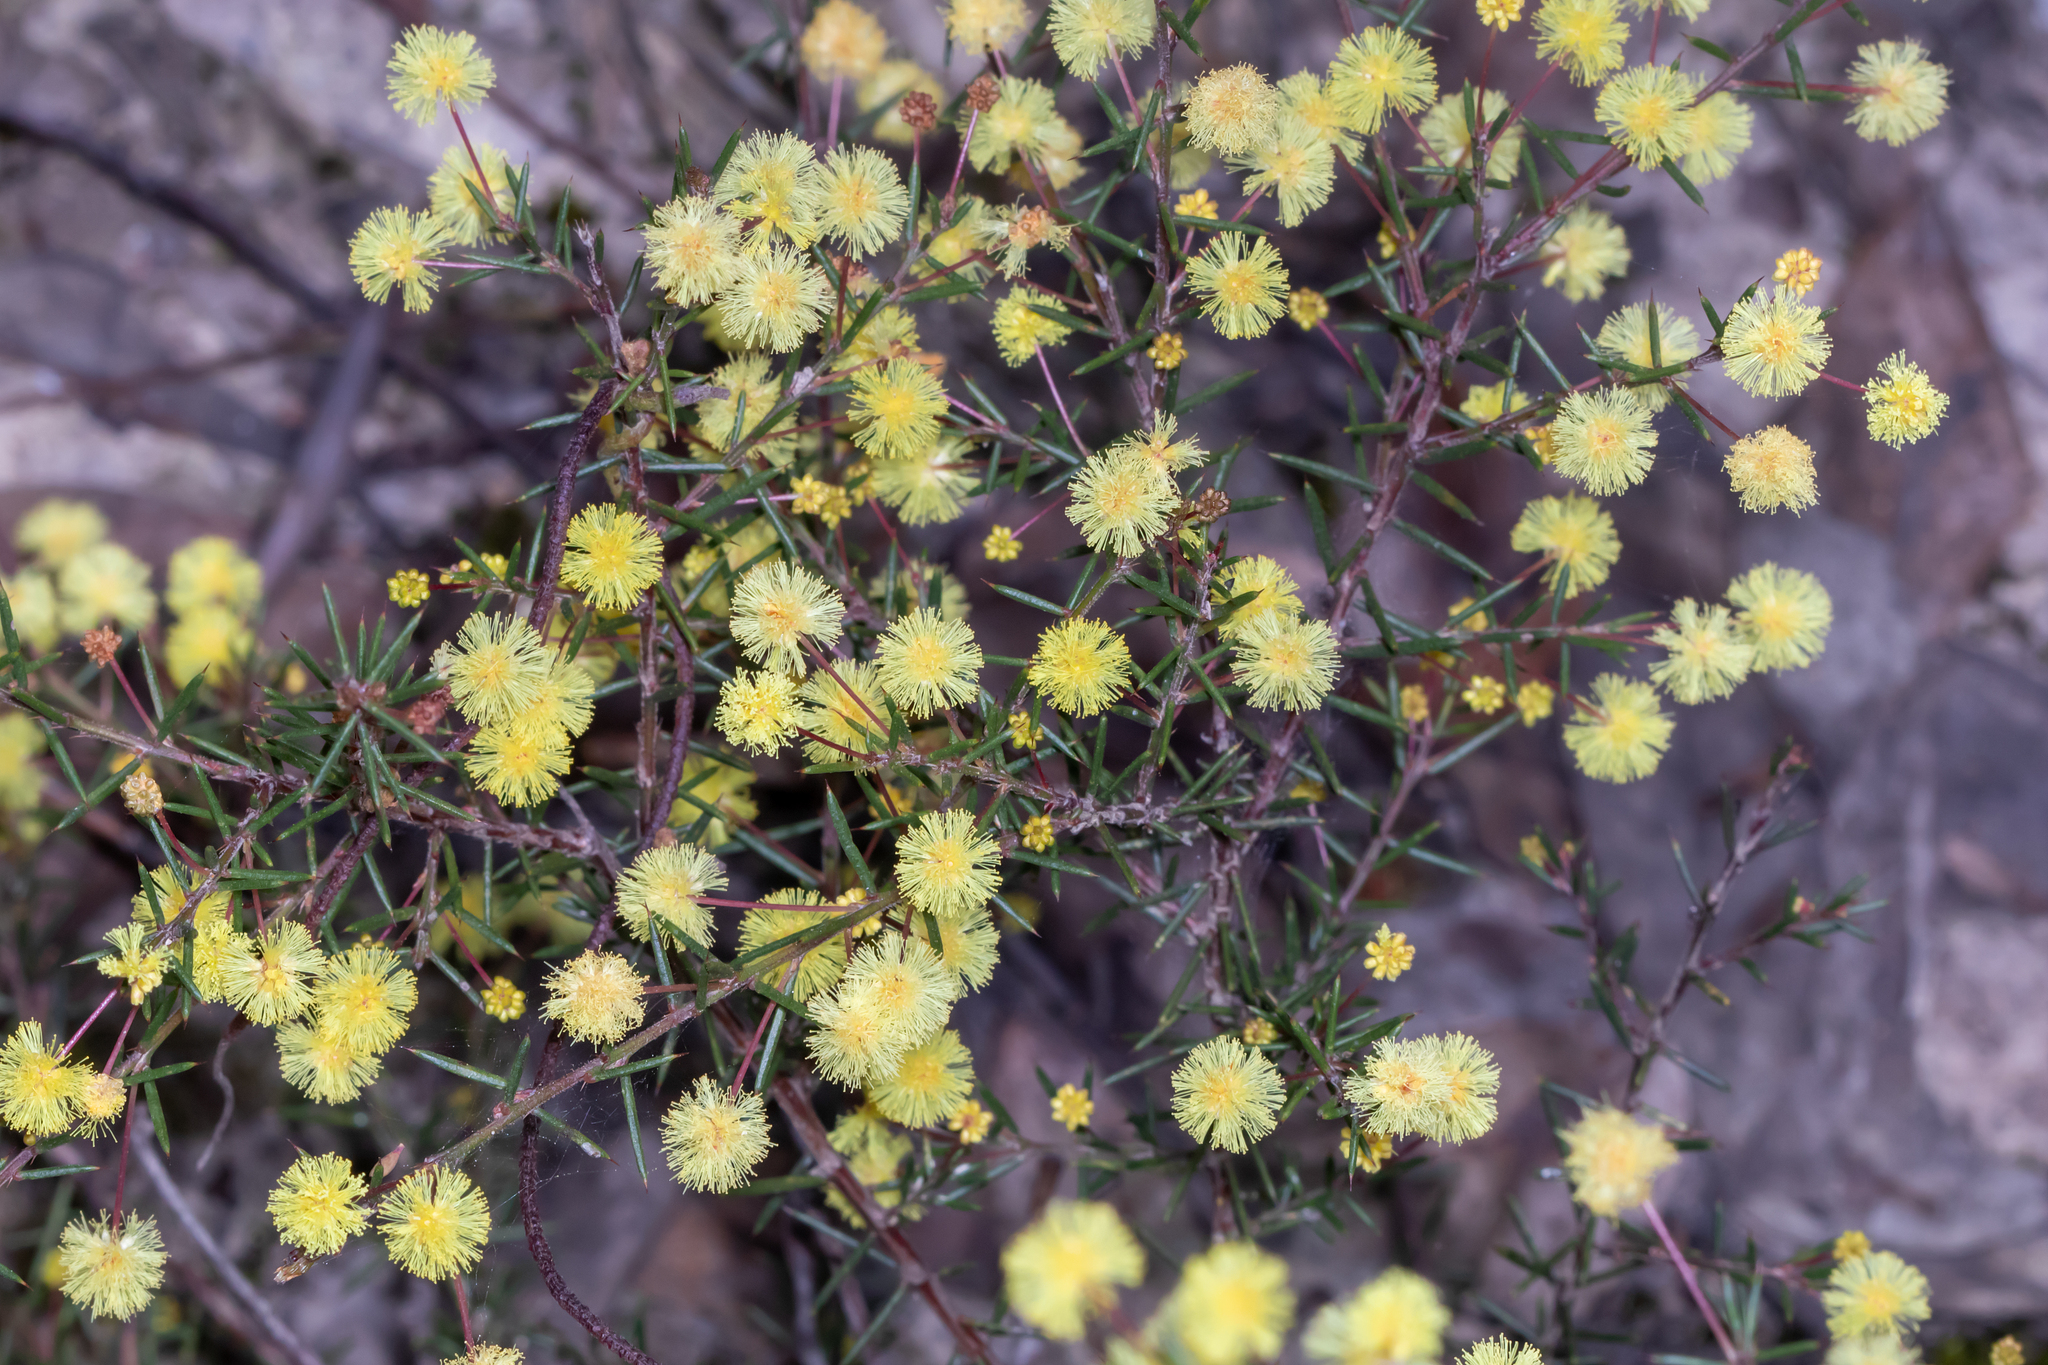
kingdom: Plantae
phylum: Tracheophyta
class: Magnoliopsida
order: Fabales
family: Fabaceae
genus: Acacia
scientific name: Acacia aculeatissima
